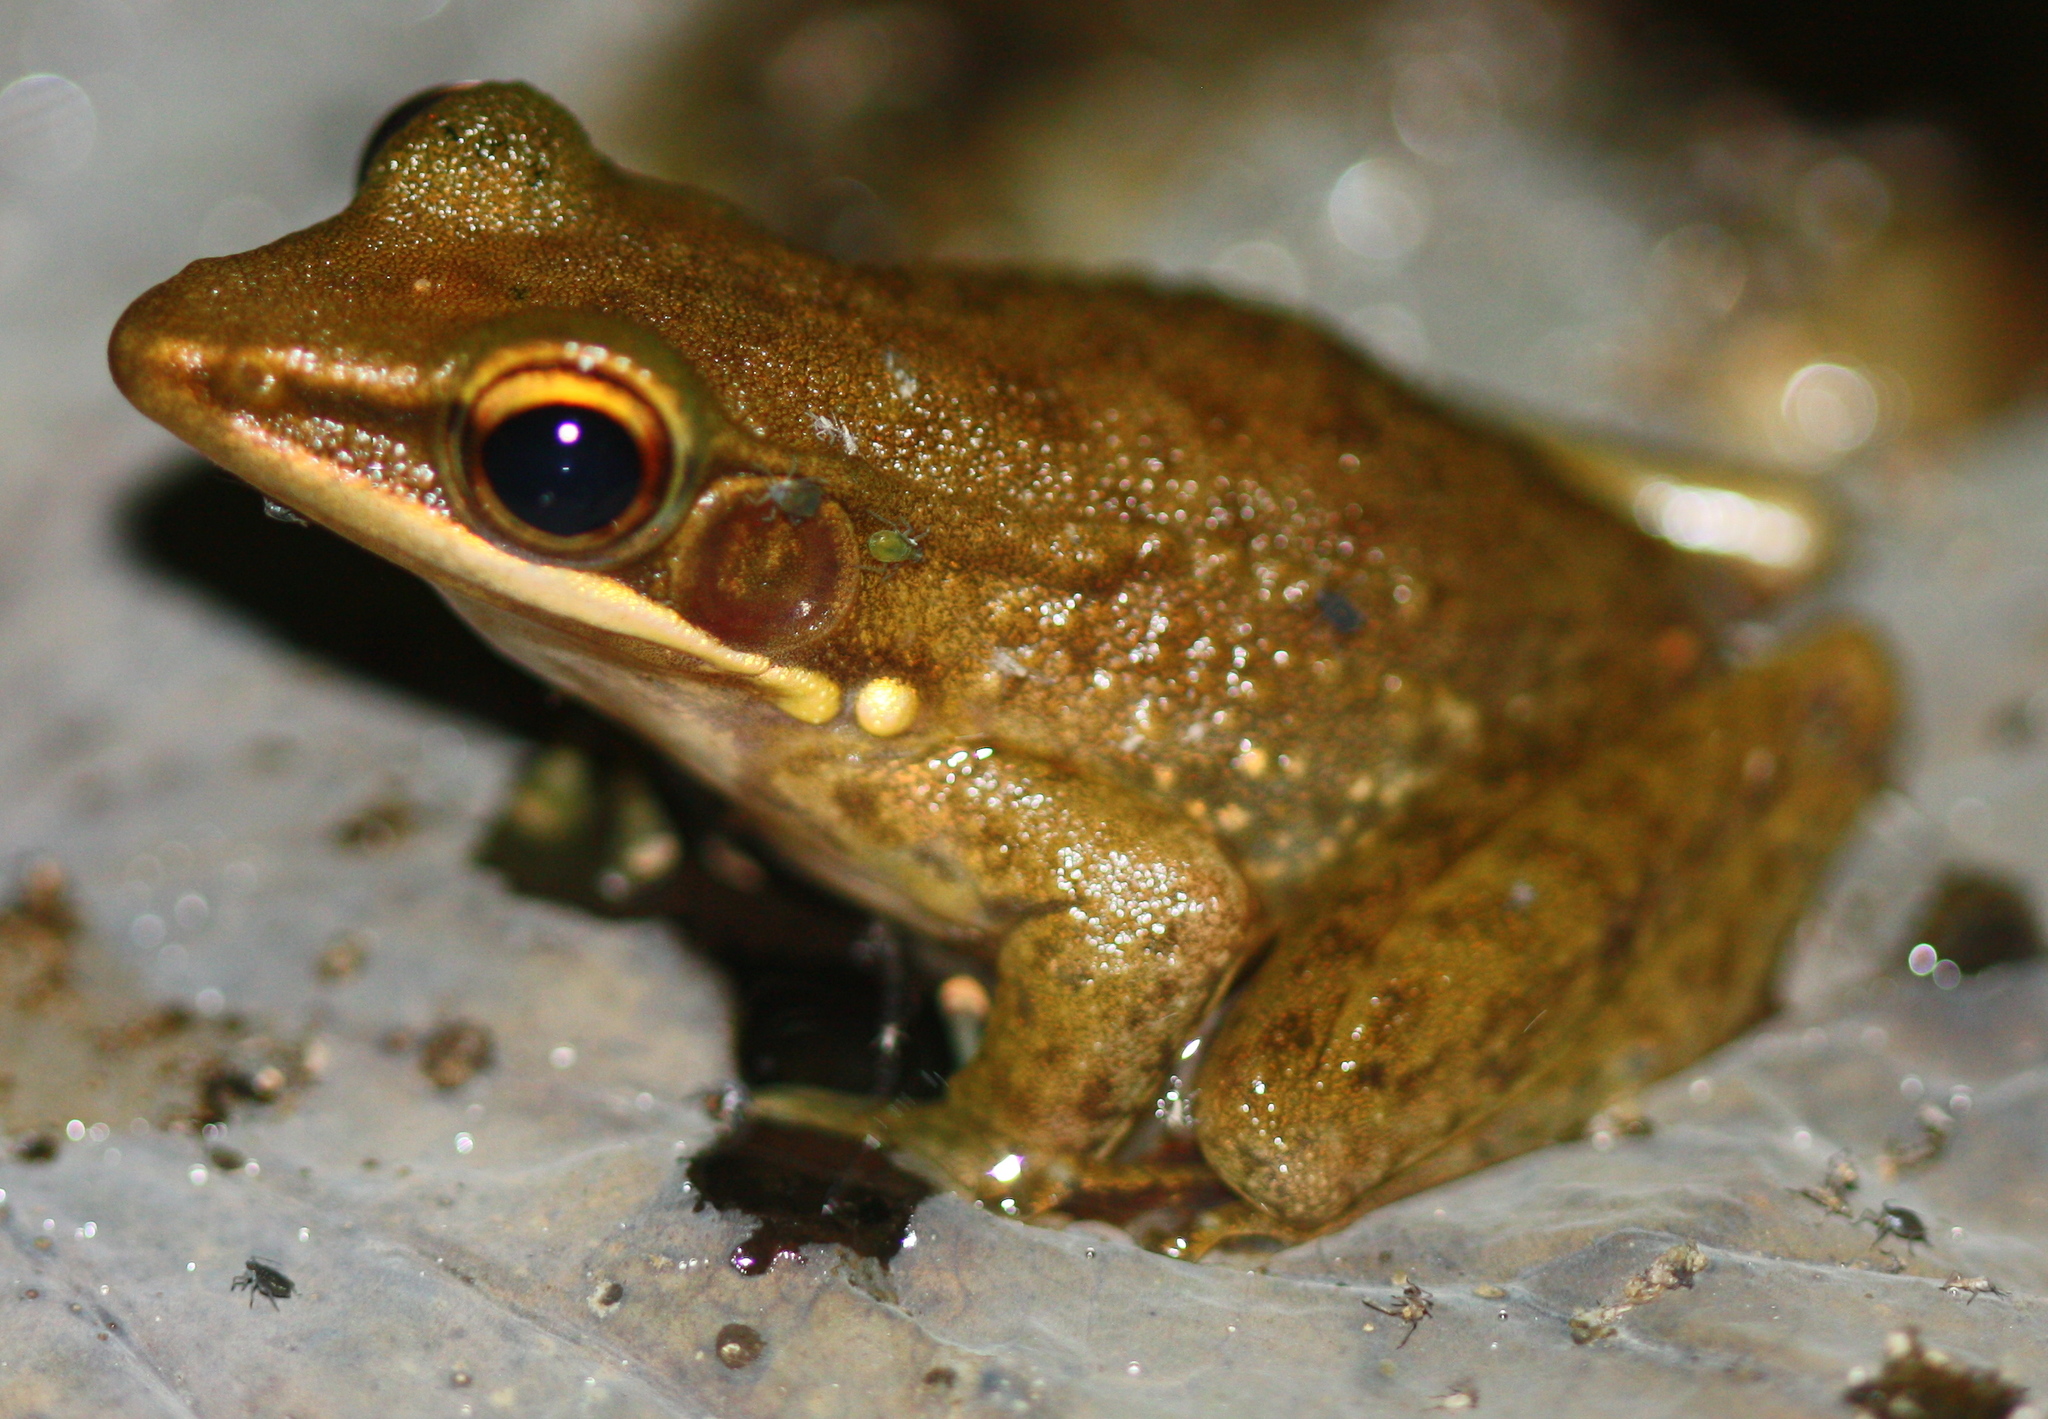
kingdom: Animalia
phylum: Chordata
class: Amphibia
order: Anura
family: Ranidae
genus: Chalcorana
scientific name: Chalcorana chalconota
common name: Schlegel's frog
